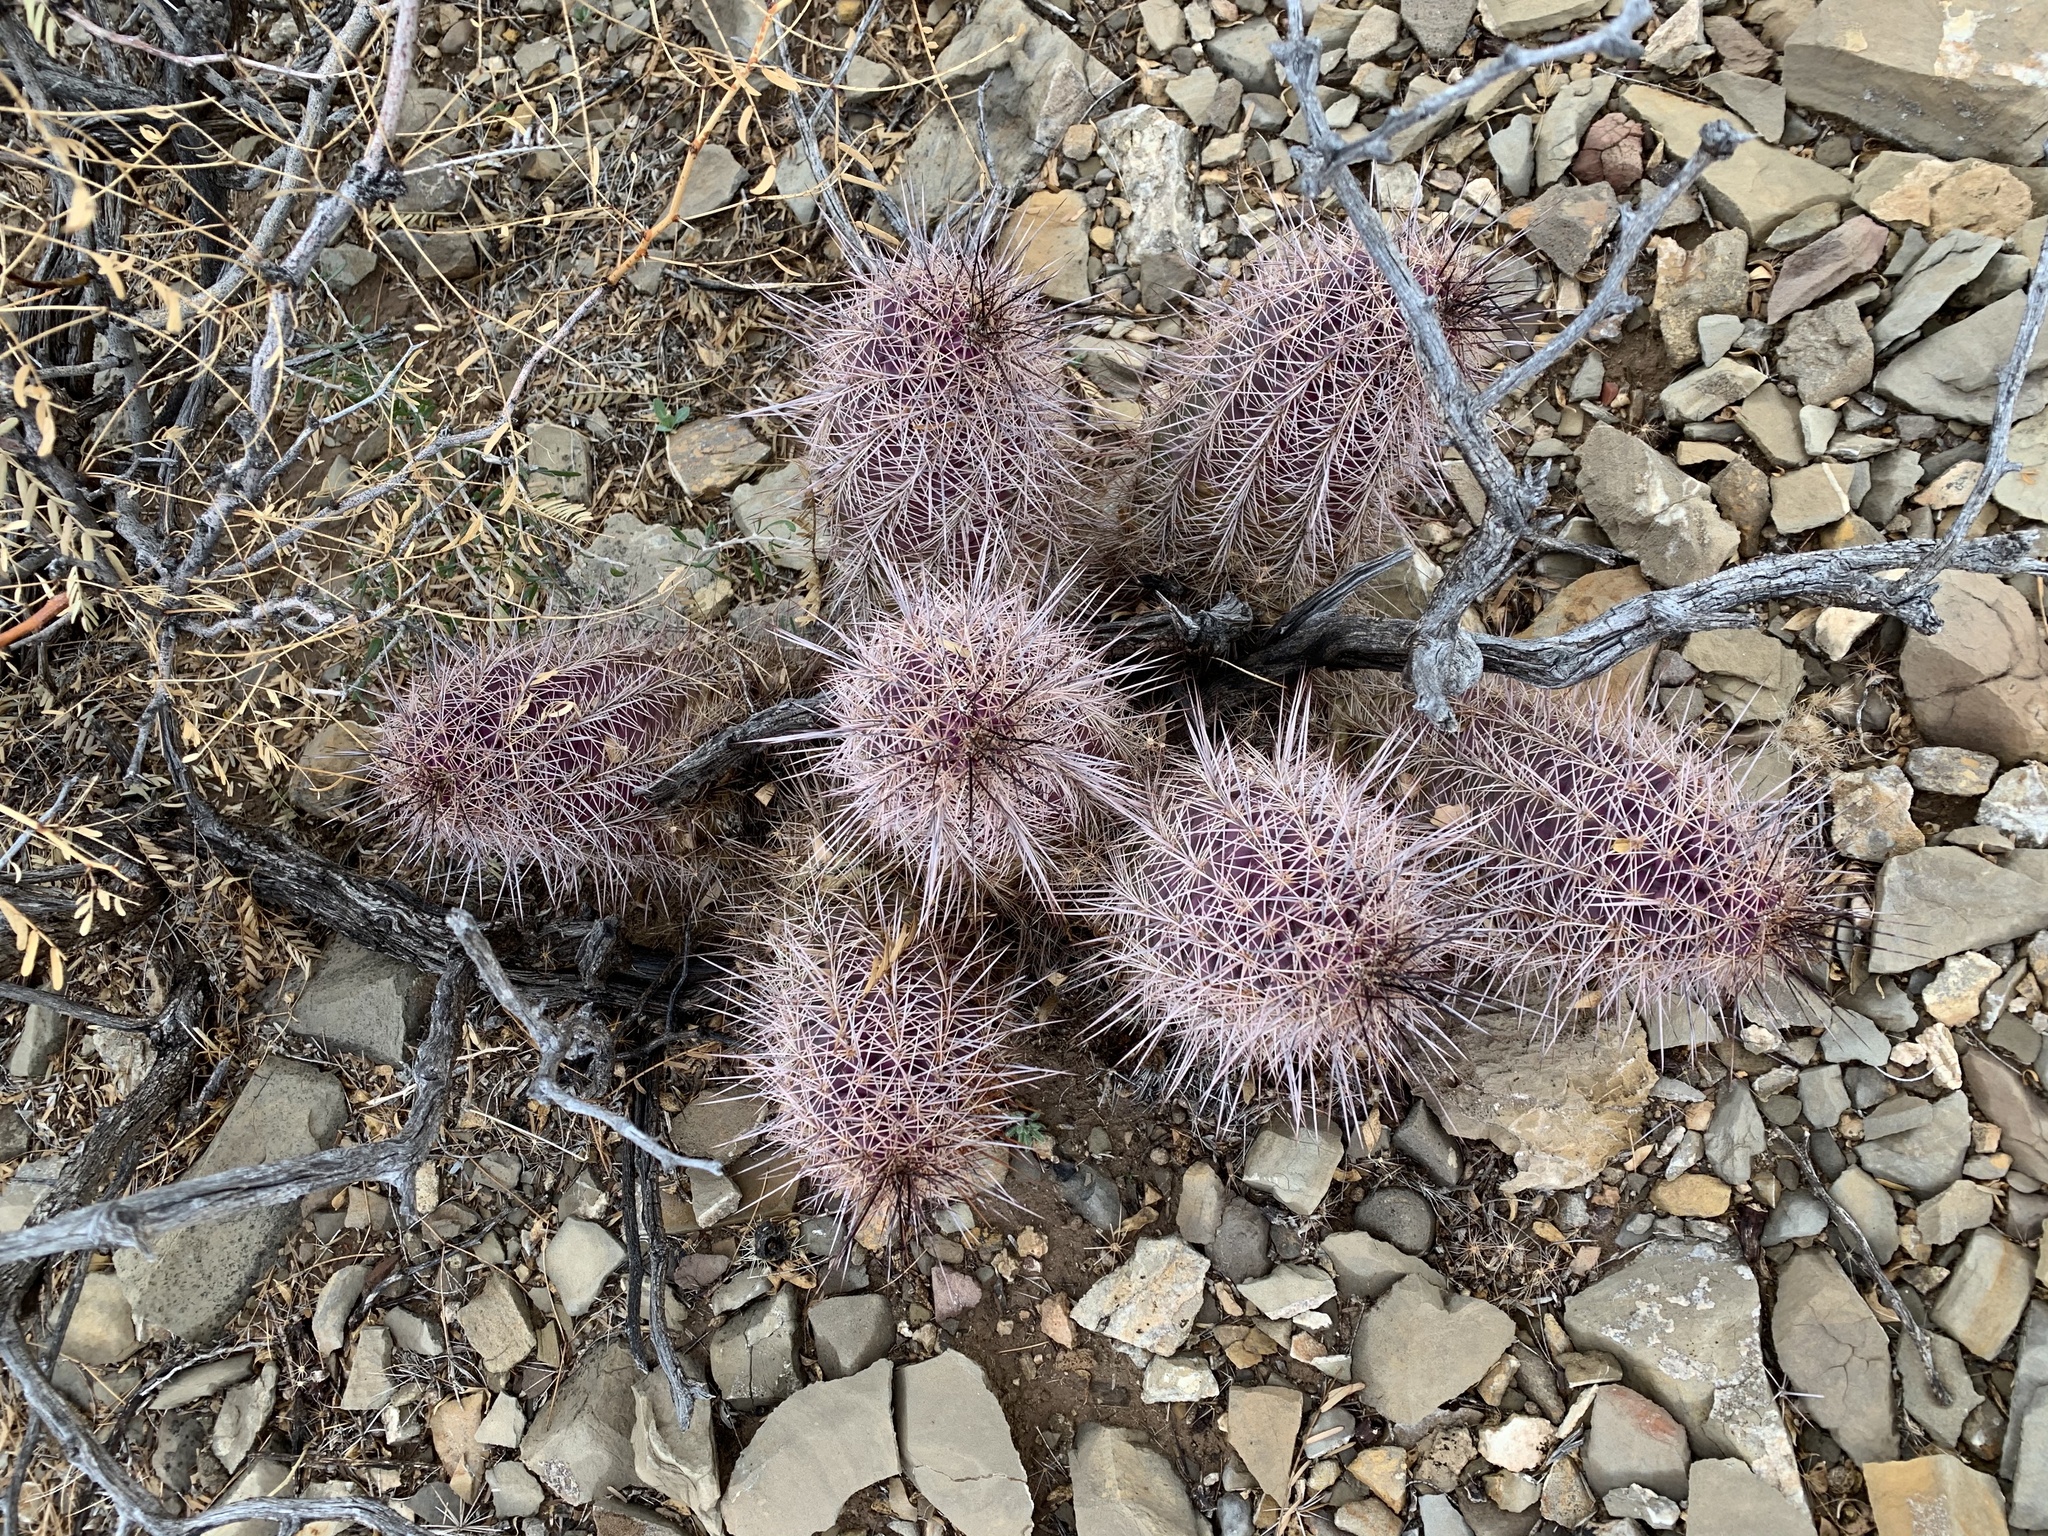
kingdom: Plantae
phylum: Tracheophyta
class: Magnoliopsida
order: Caryophyllales
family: Cactaceae
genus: Echinocereus
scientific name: Echinocereus coccineus
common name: Scarlet hedgehog cactus
